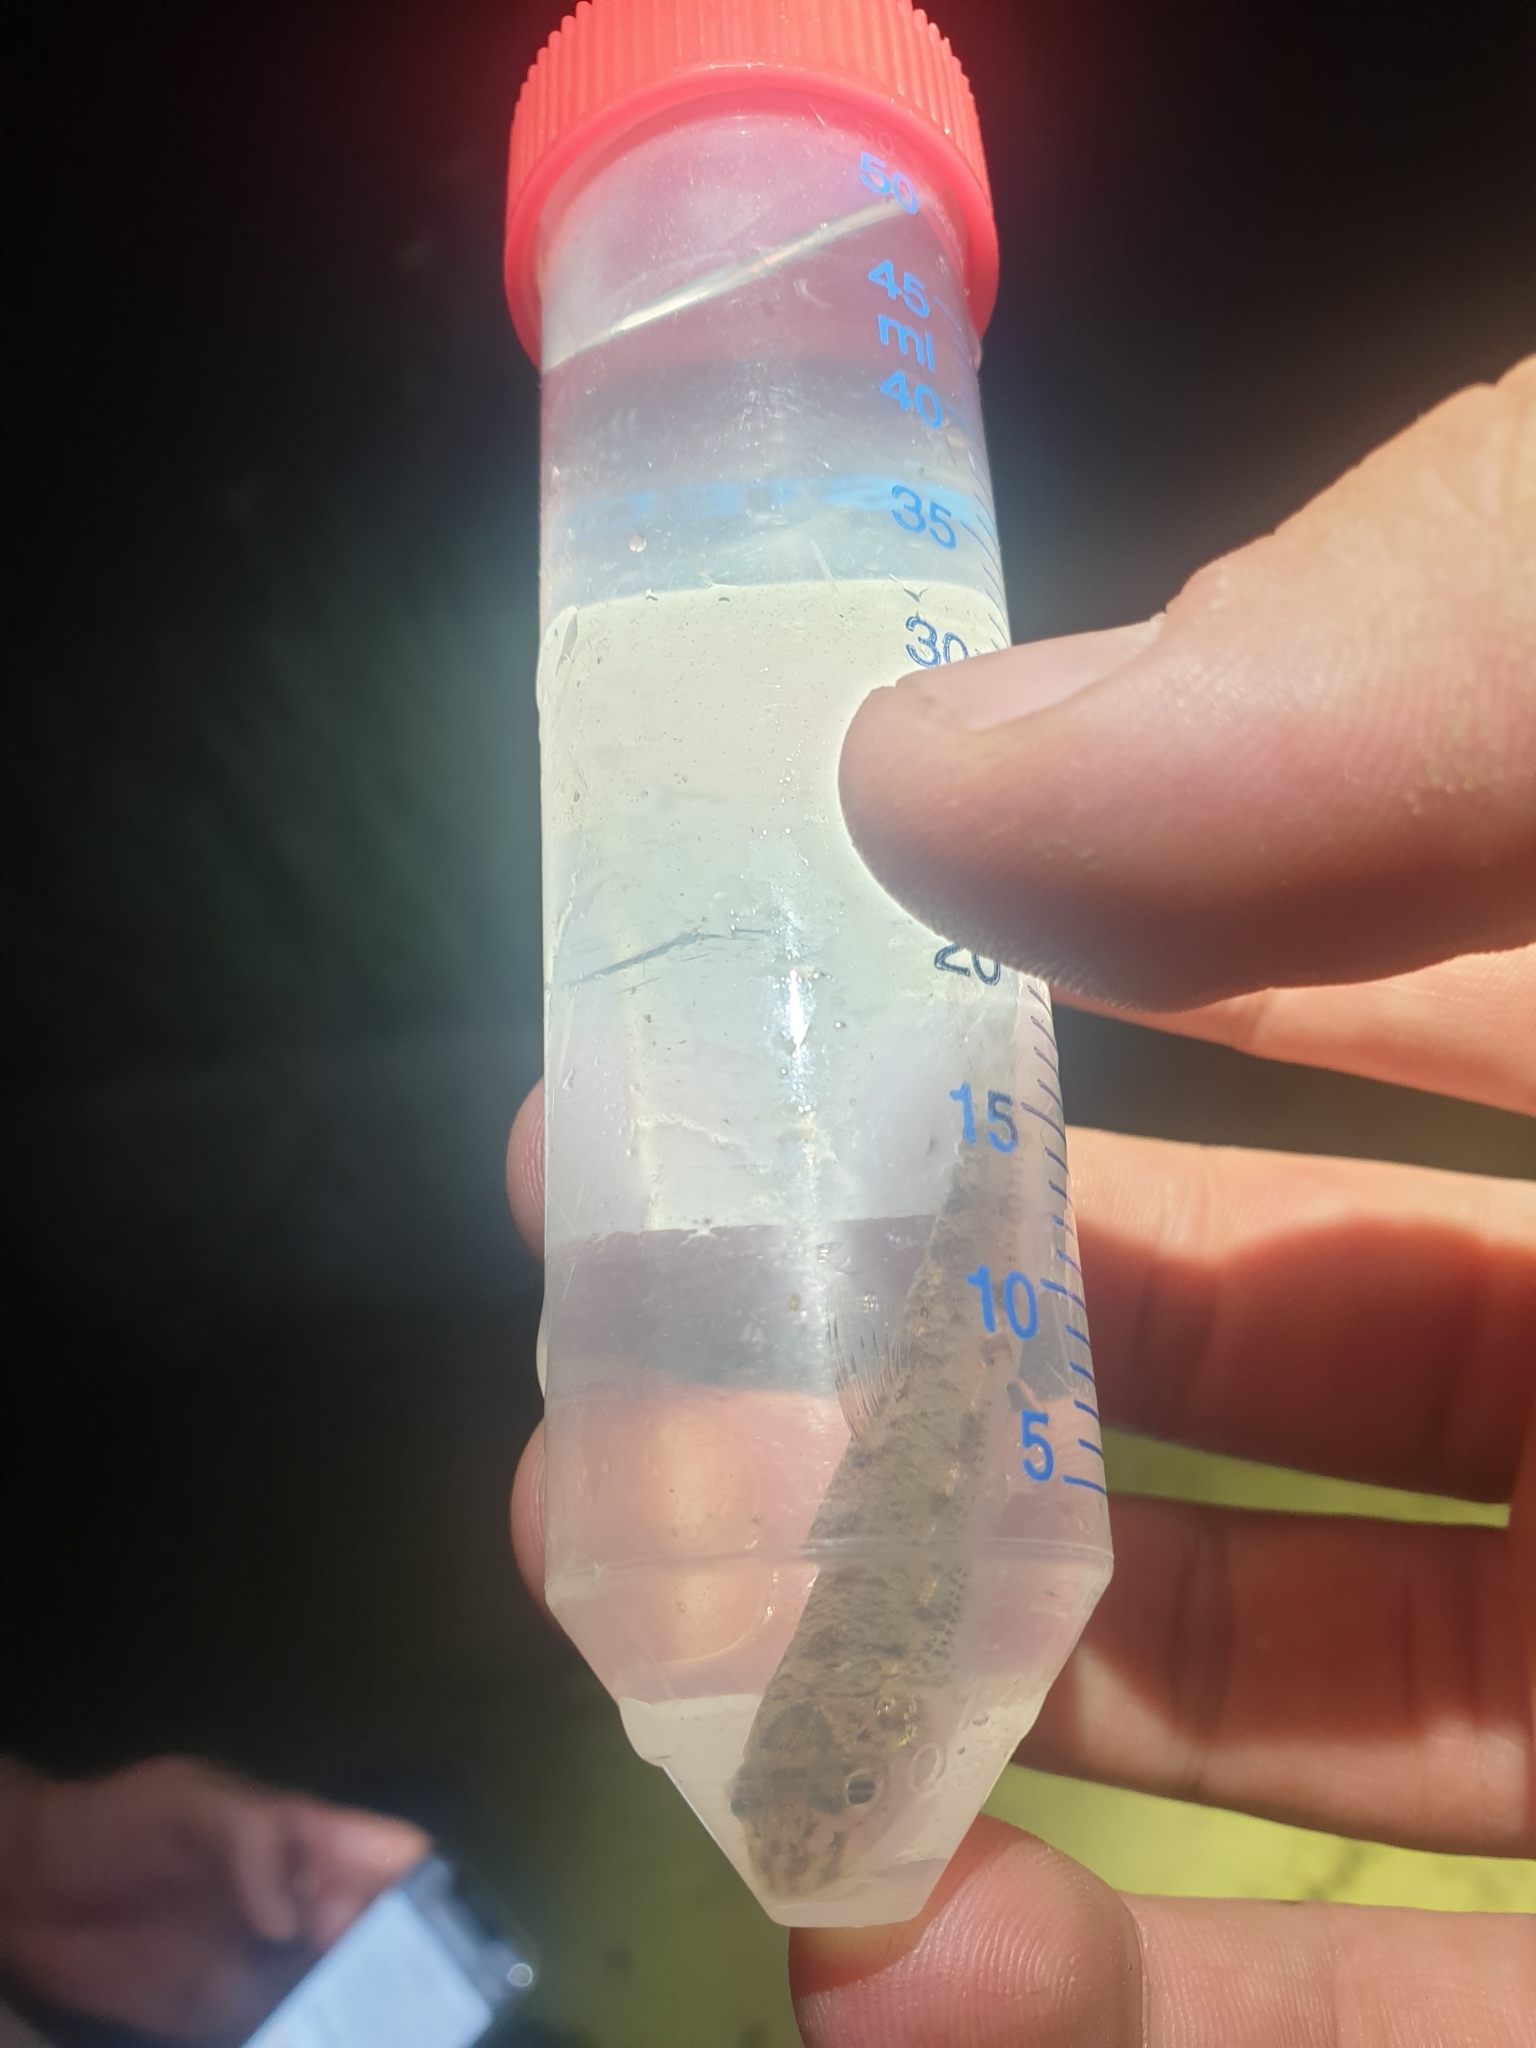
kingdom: Animalia
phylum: Chordata
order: Cypriniformes
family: Cyprinidae
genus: Gobio
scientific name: Gobio gobio
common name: Gudgeon
